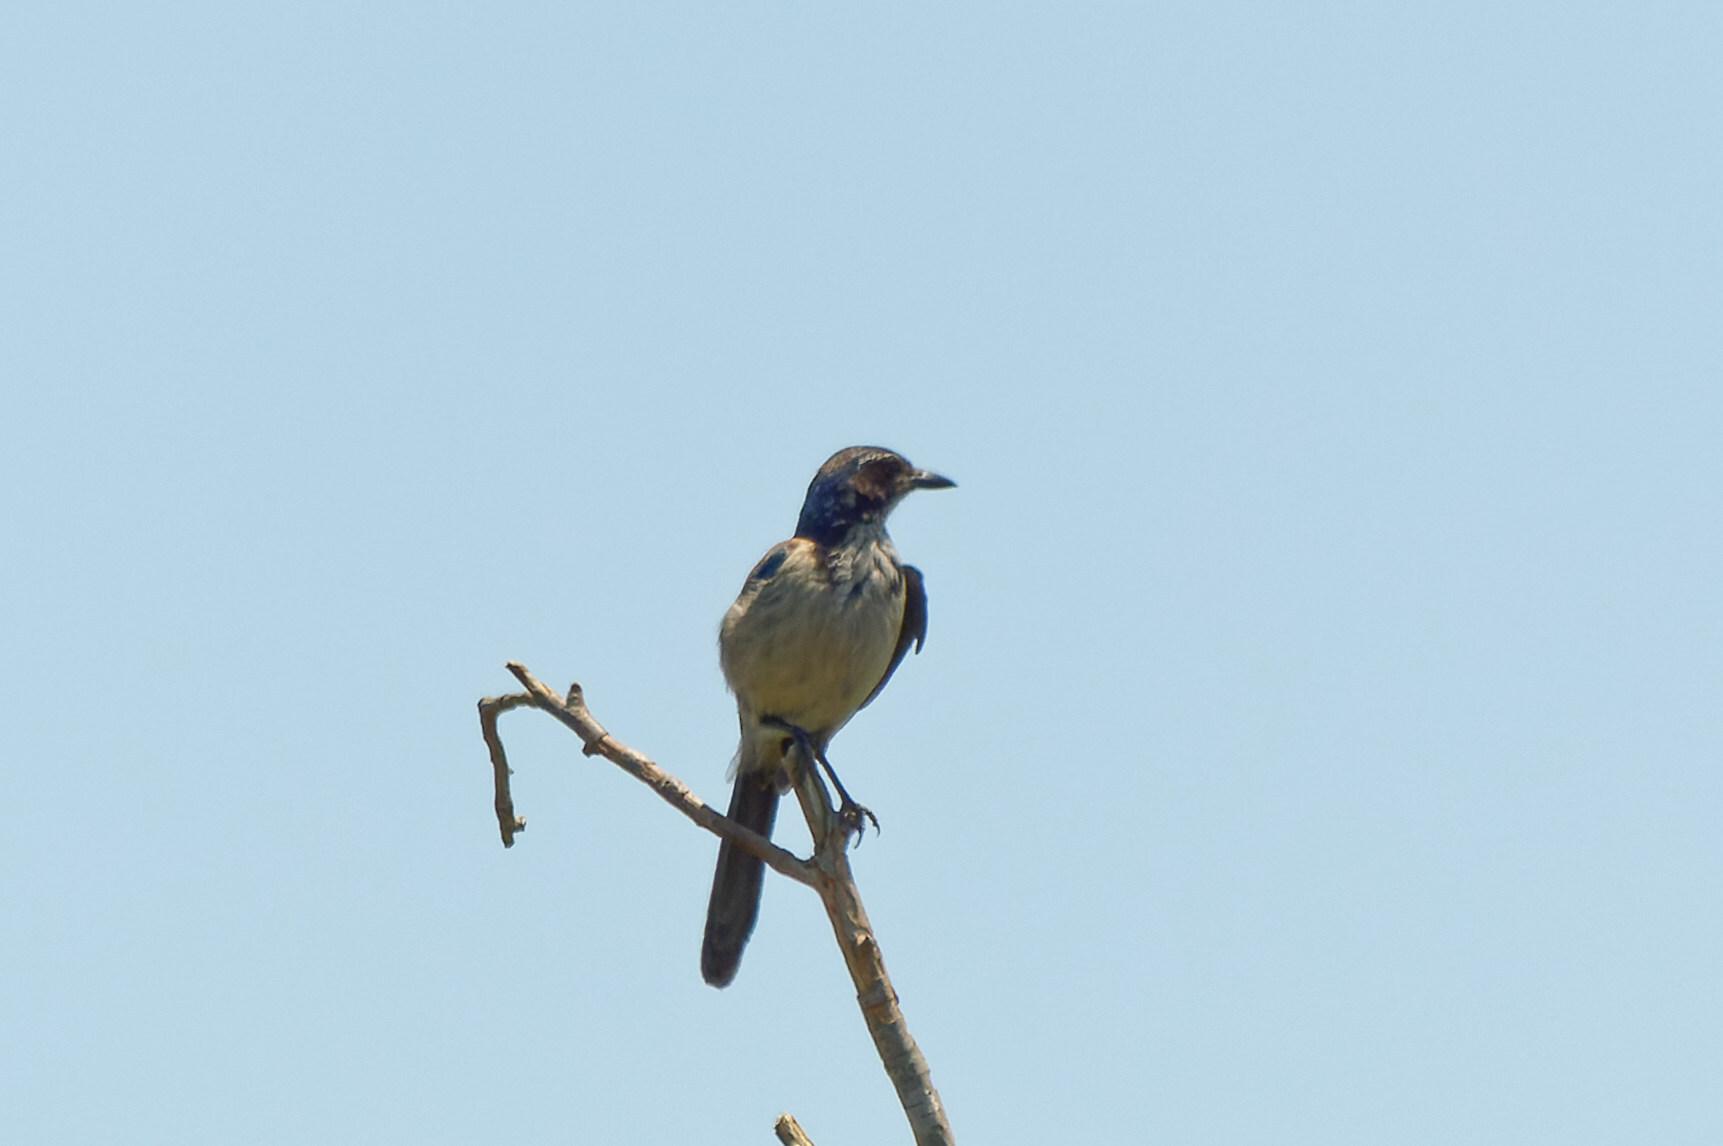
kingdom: Animalia
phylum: Chordata
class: Aves
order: Passeriformes
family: Corvidae
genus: Aphelocoma
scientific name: Aphelocoma californica
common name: California scrub-jay
